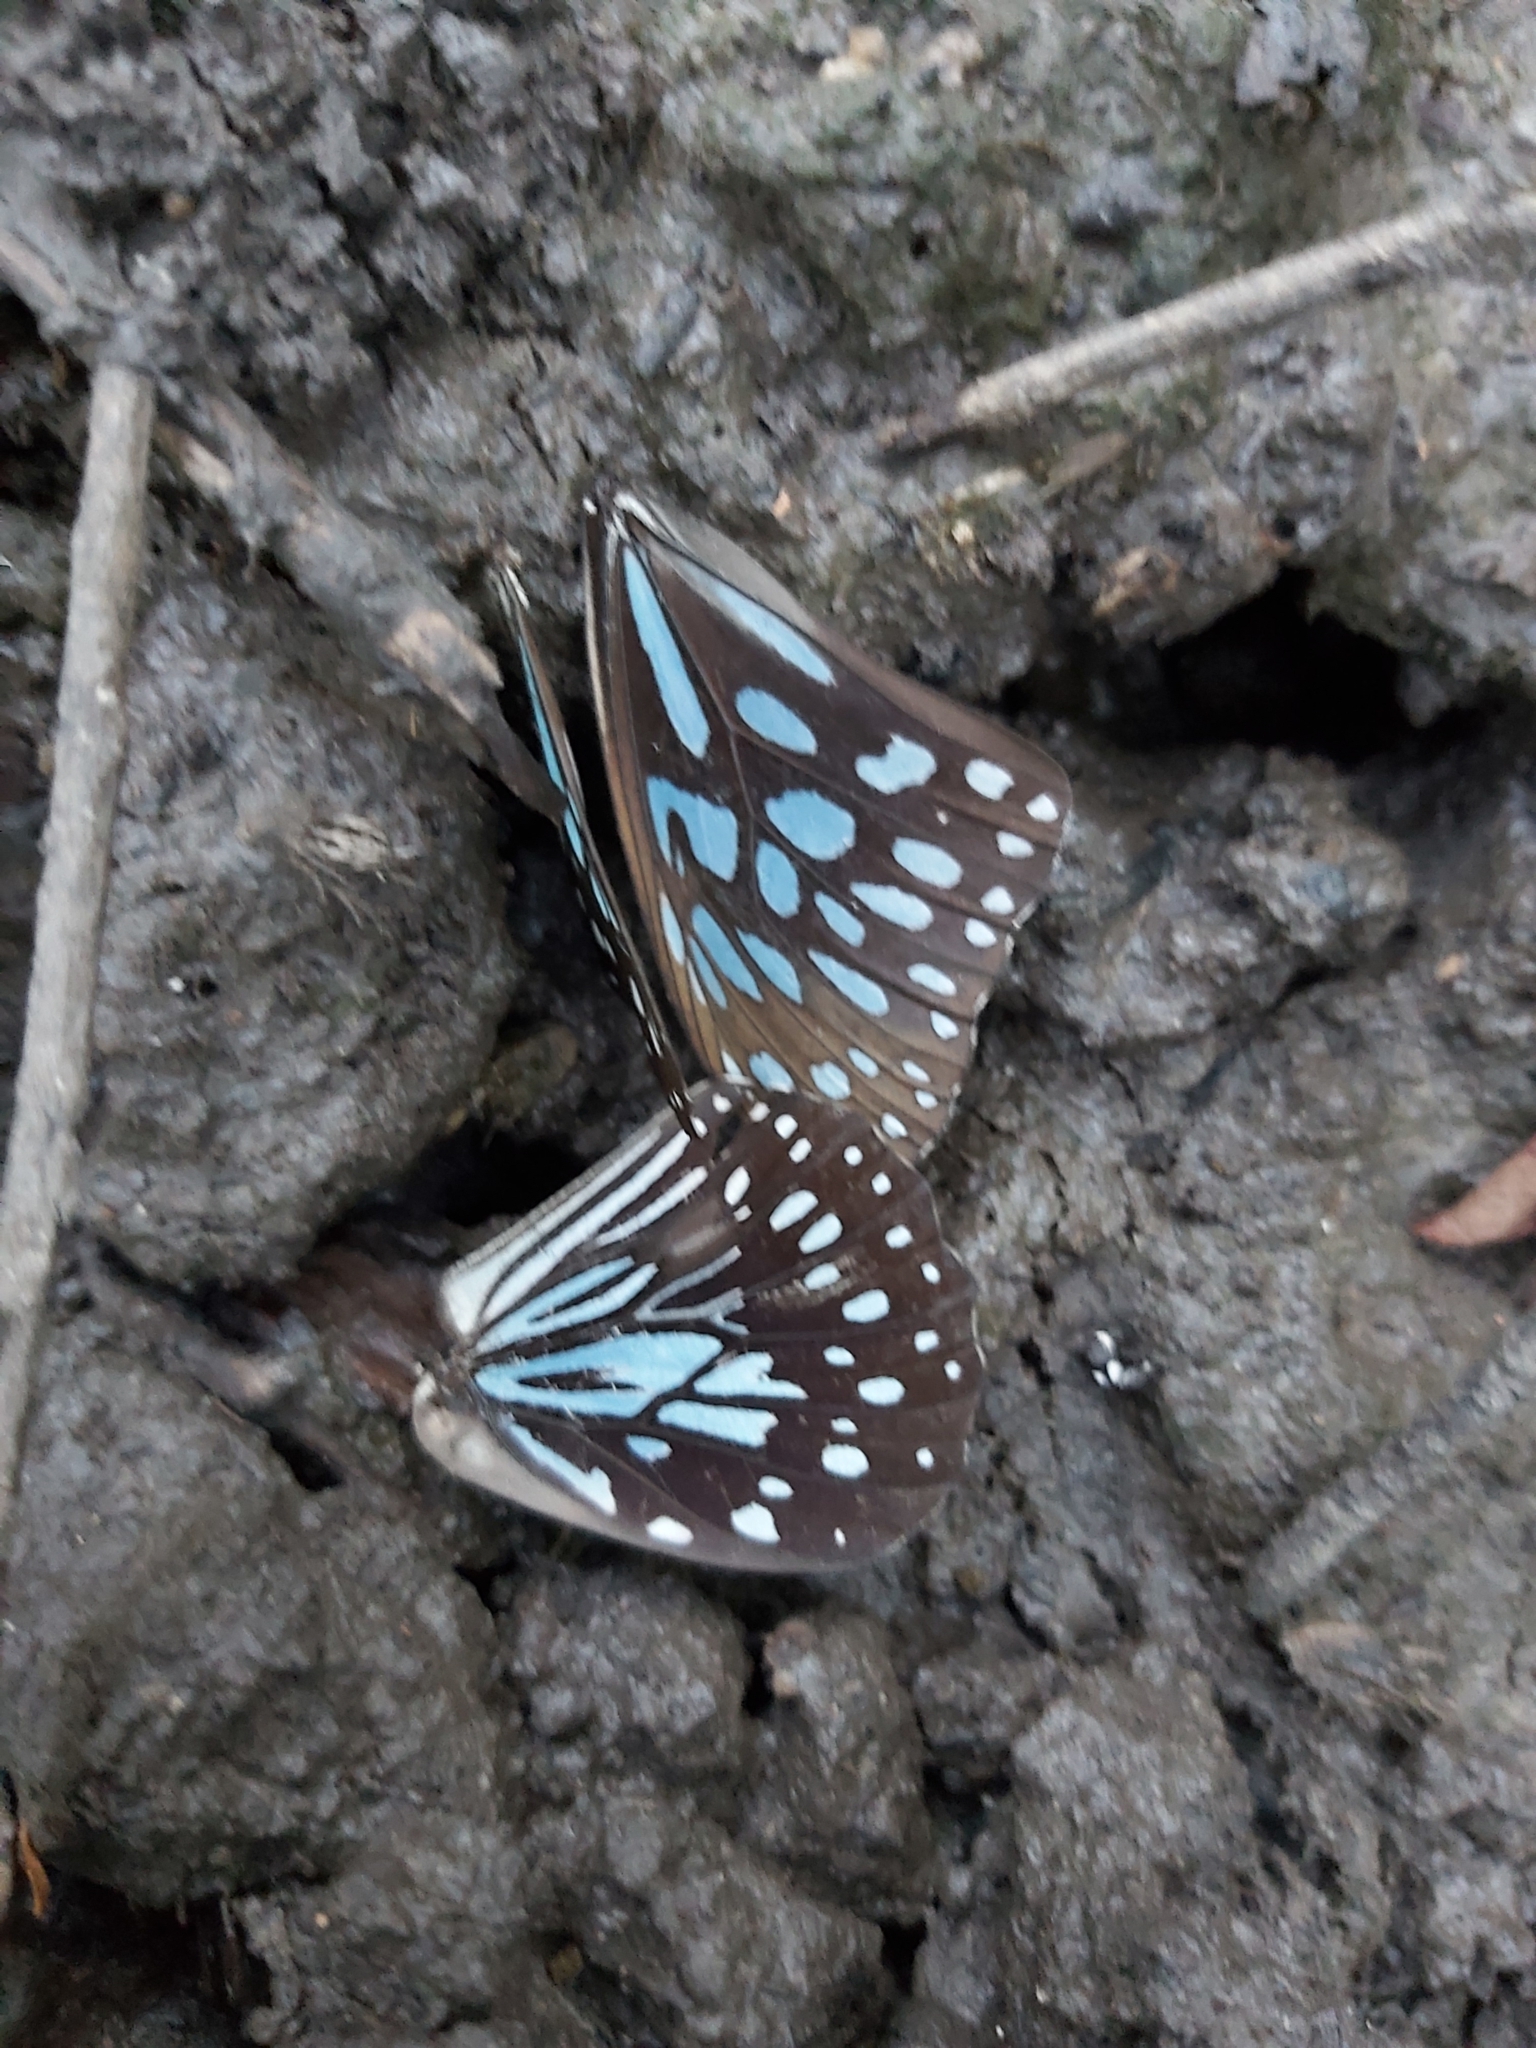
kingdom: Animalia
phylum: Arthropoda
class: Insecta
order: Lepidoptera
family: Nymphalidae
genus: Tirumala
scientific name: Tirumala hamata
